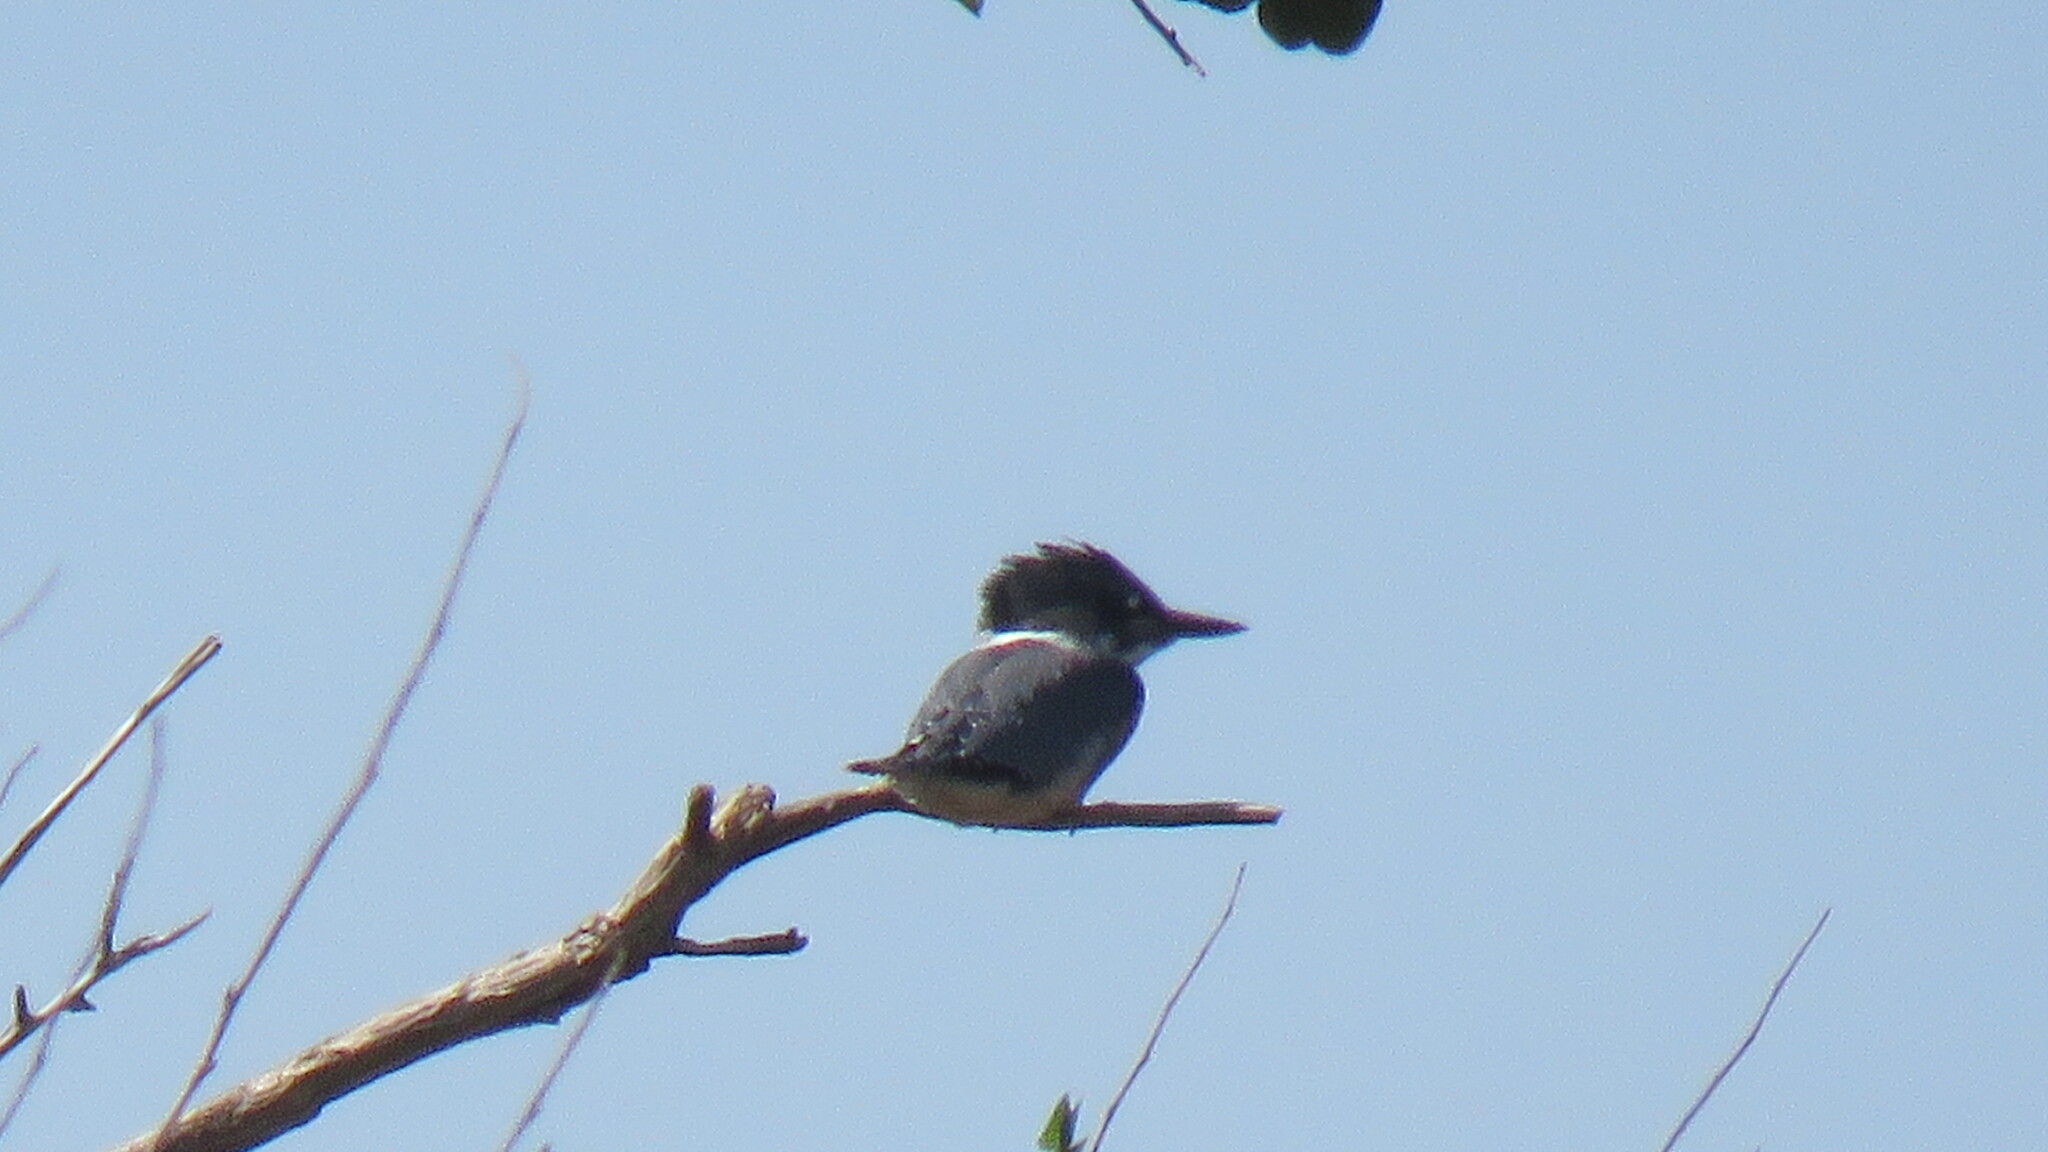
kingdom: Animalia
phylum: Chordata
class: Aves
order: Coraciiformes
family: Alcedinidae
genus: Megaceryle
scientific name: Megaceryle alcyon
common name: Belted kingfisher
